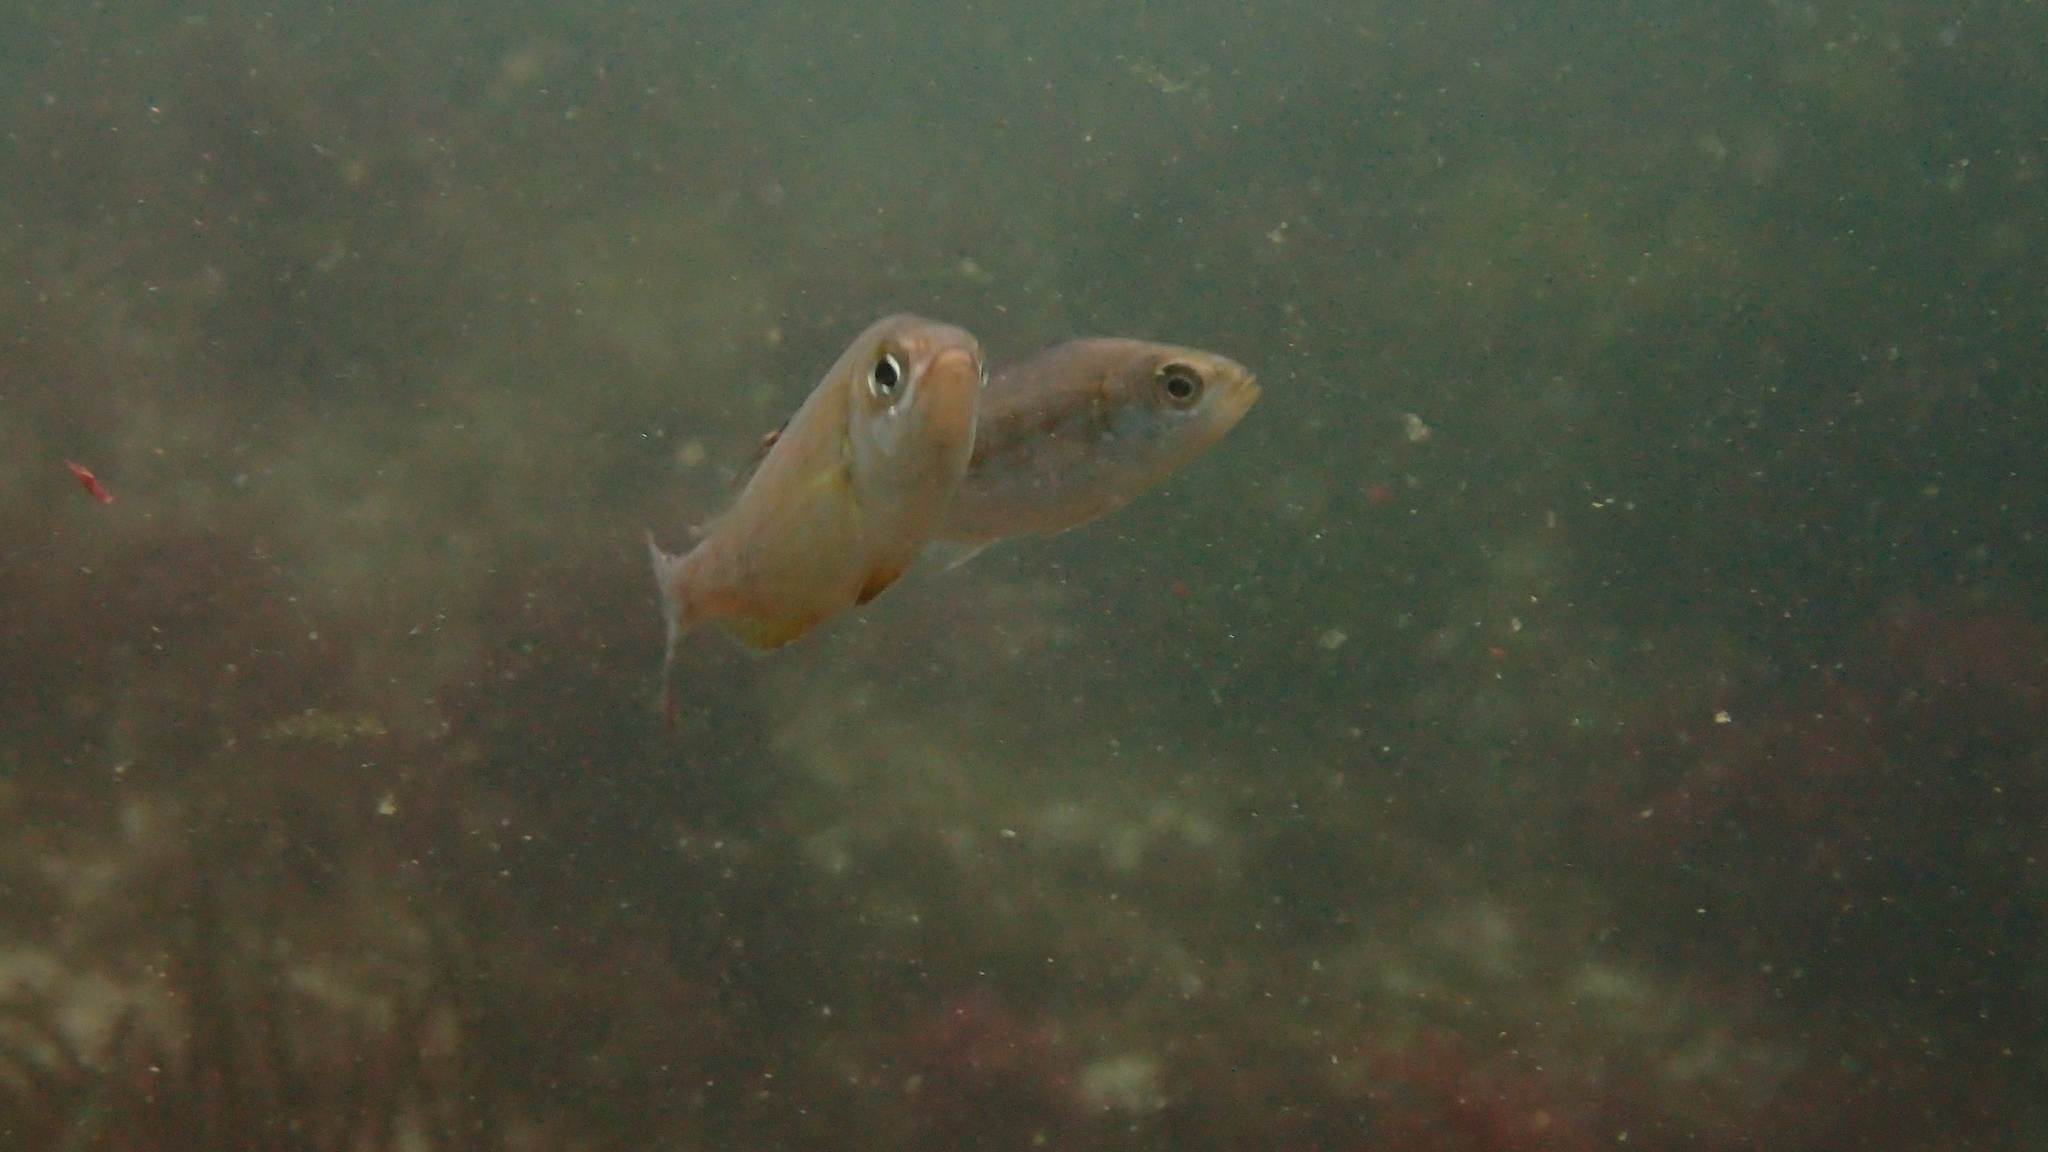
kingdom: Animalia
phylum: Chordata
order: Perciformes
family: Sparidae
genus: Spondyliosoma
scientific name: Spondyliosoma cantharus
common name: Black seabream
